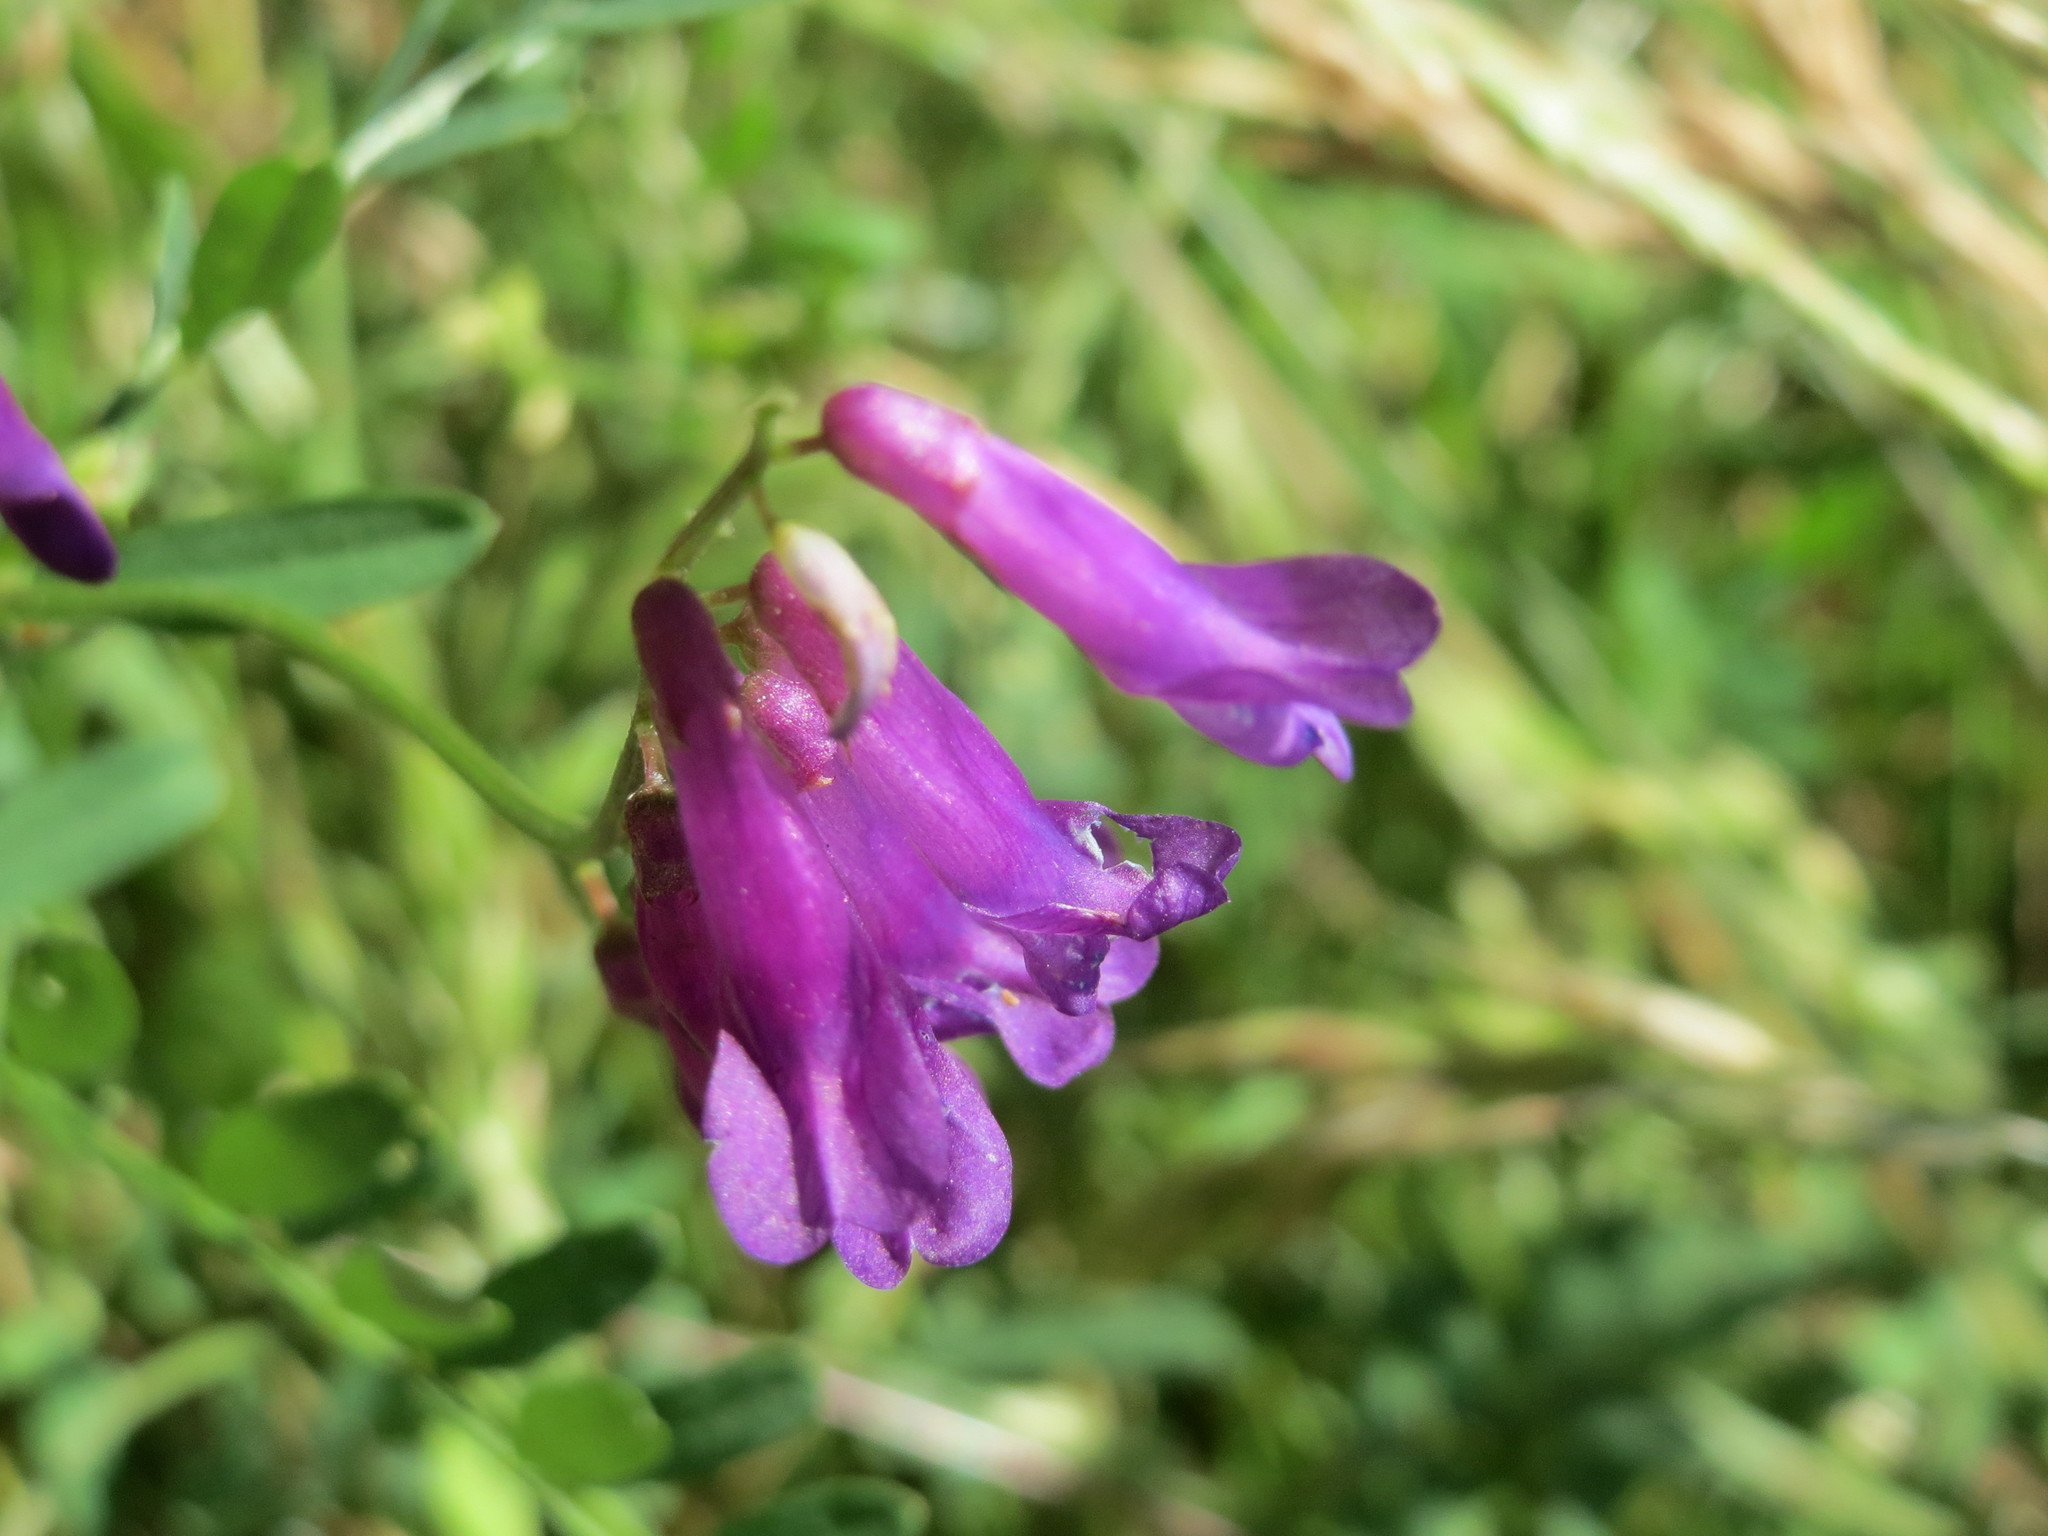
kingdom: Plantae
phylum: Tracheophyta
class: Magnoliopsida
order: Fabales
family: Fabaceae
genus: Vicia
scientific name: Vicia cracca
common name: Bird vetch
